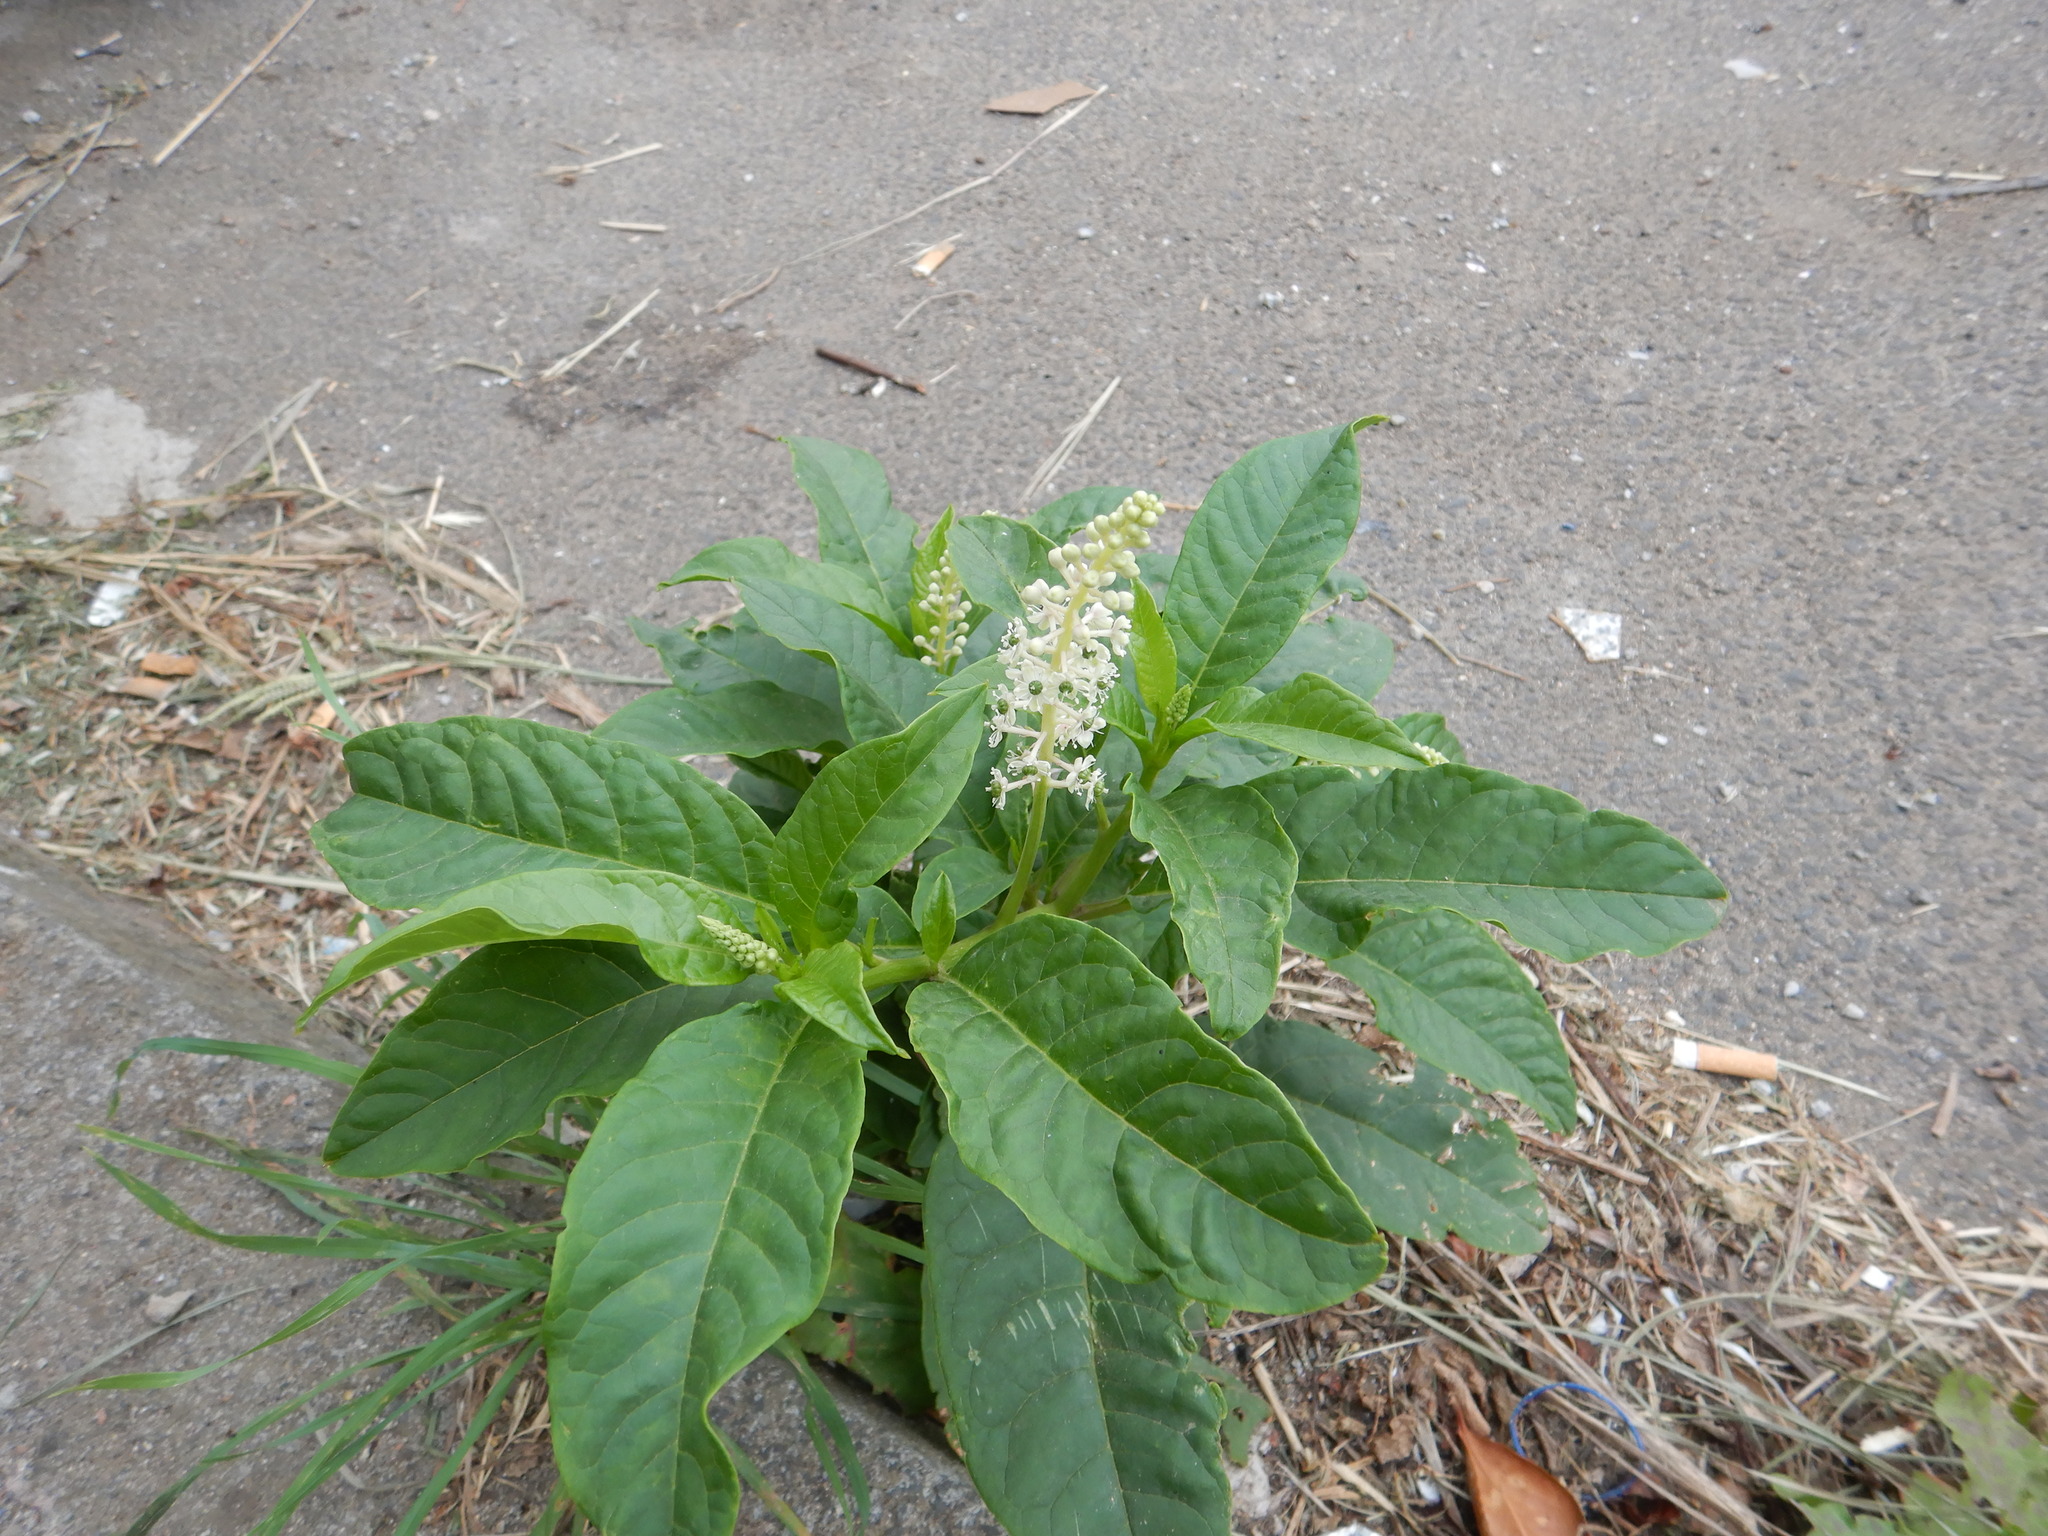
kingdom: Plantae
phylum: Tracheophyta
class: Magnoliopsida
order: Caryophyllales
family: Phytolaccaceae
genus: Phytolacca
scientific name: Phytolacca americana
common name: American pokeweed
